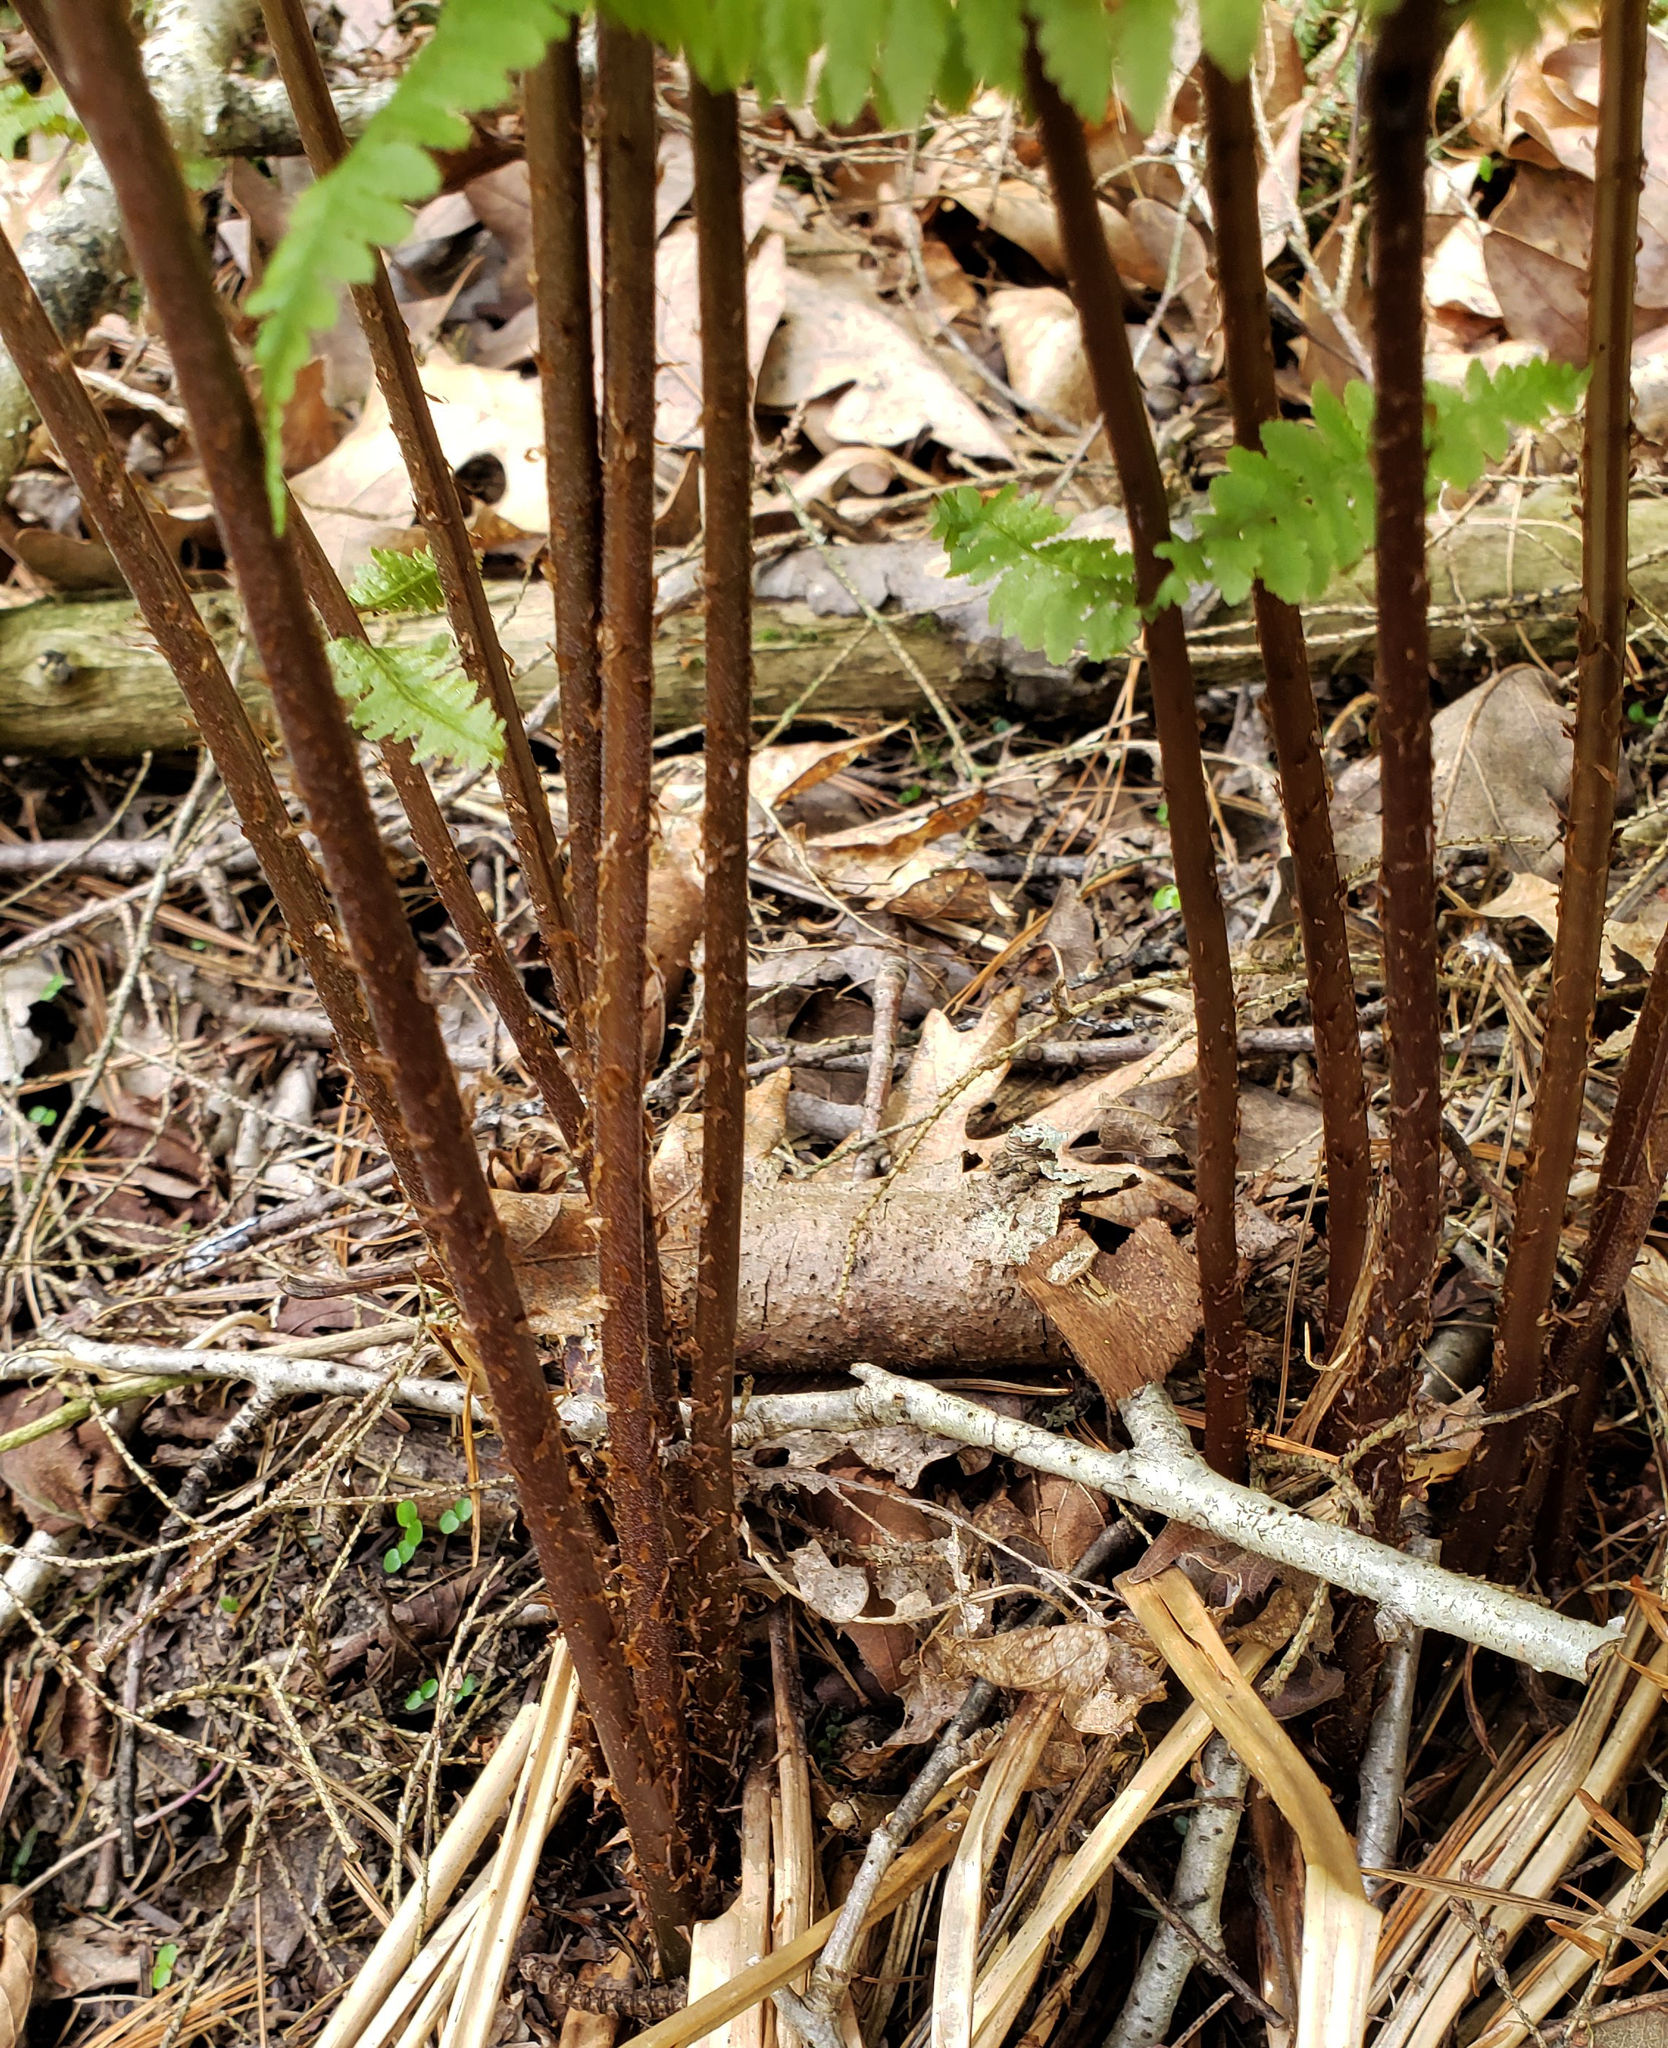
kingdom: Plantae
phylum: Tracheophyta
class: Polypodiopsida
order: Polypodiales
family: Athyriaceae
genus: Athyrium
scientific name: Athyrium angustum
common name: Northern lady fern
